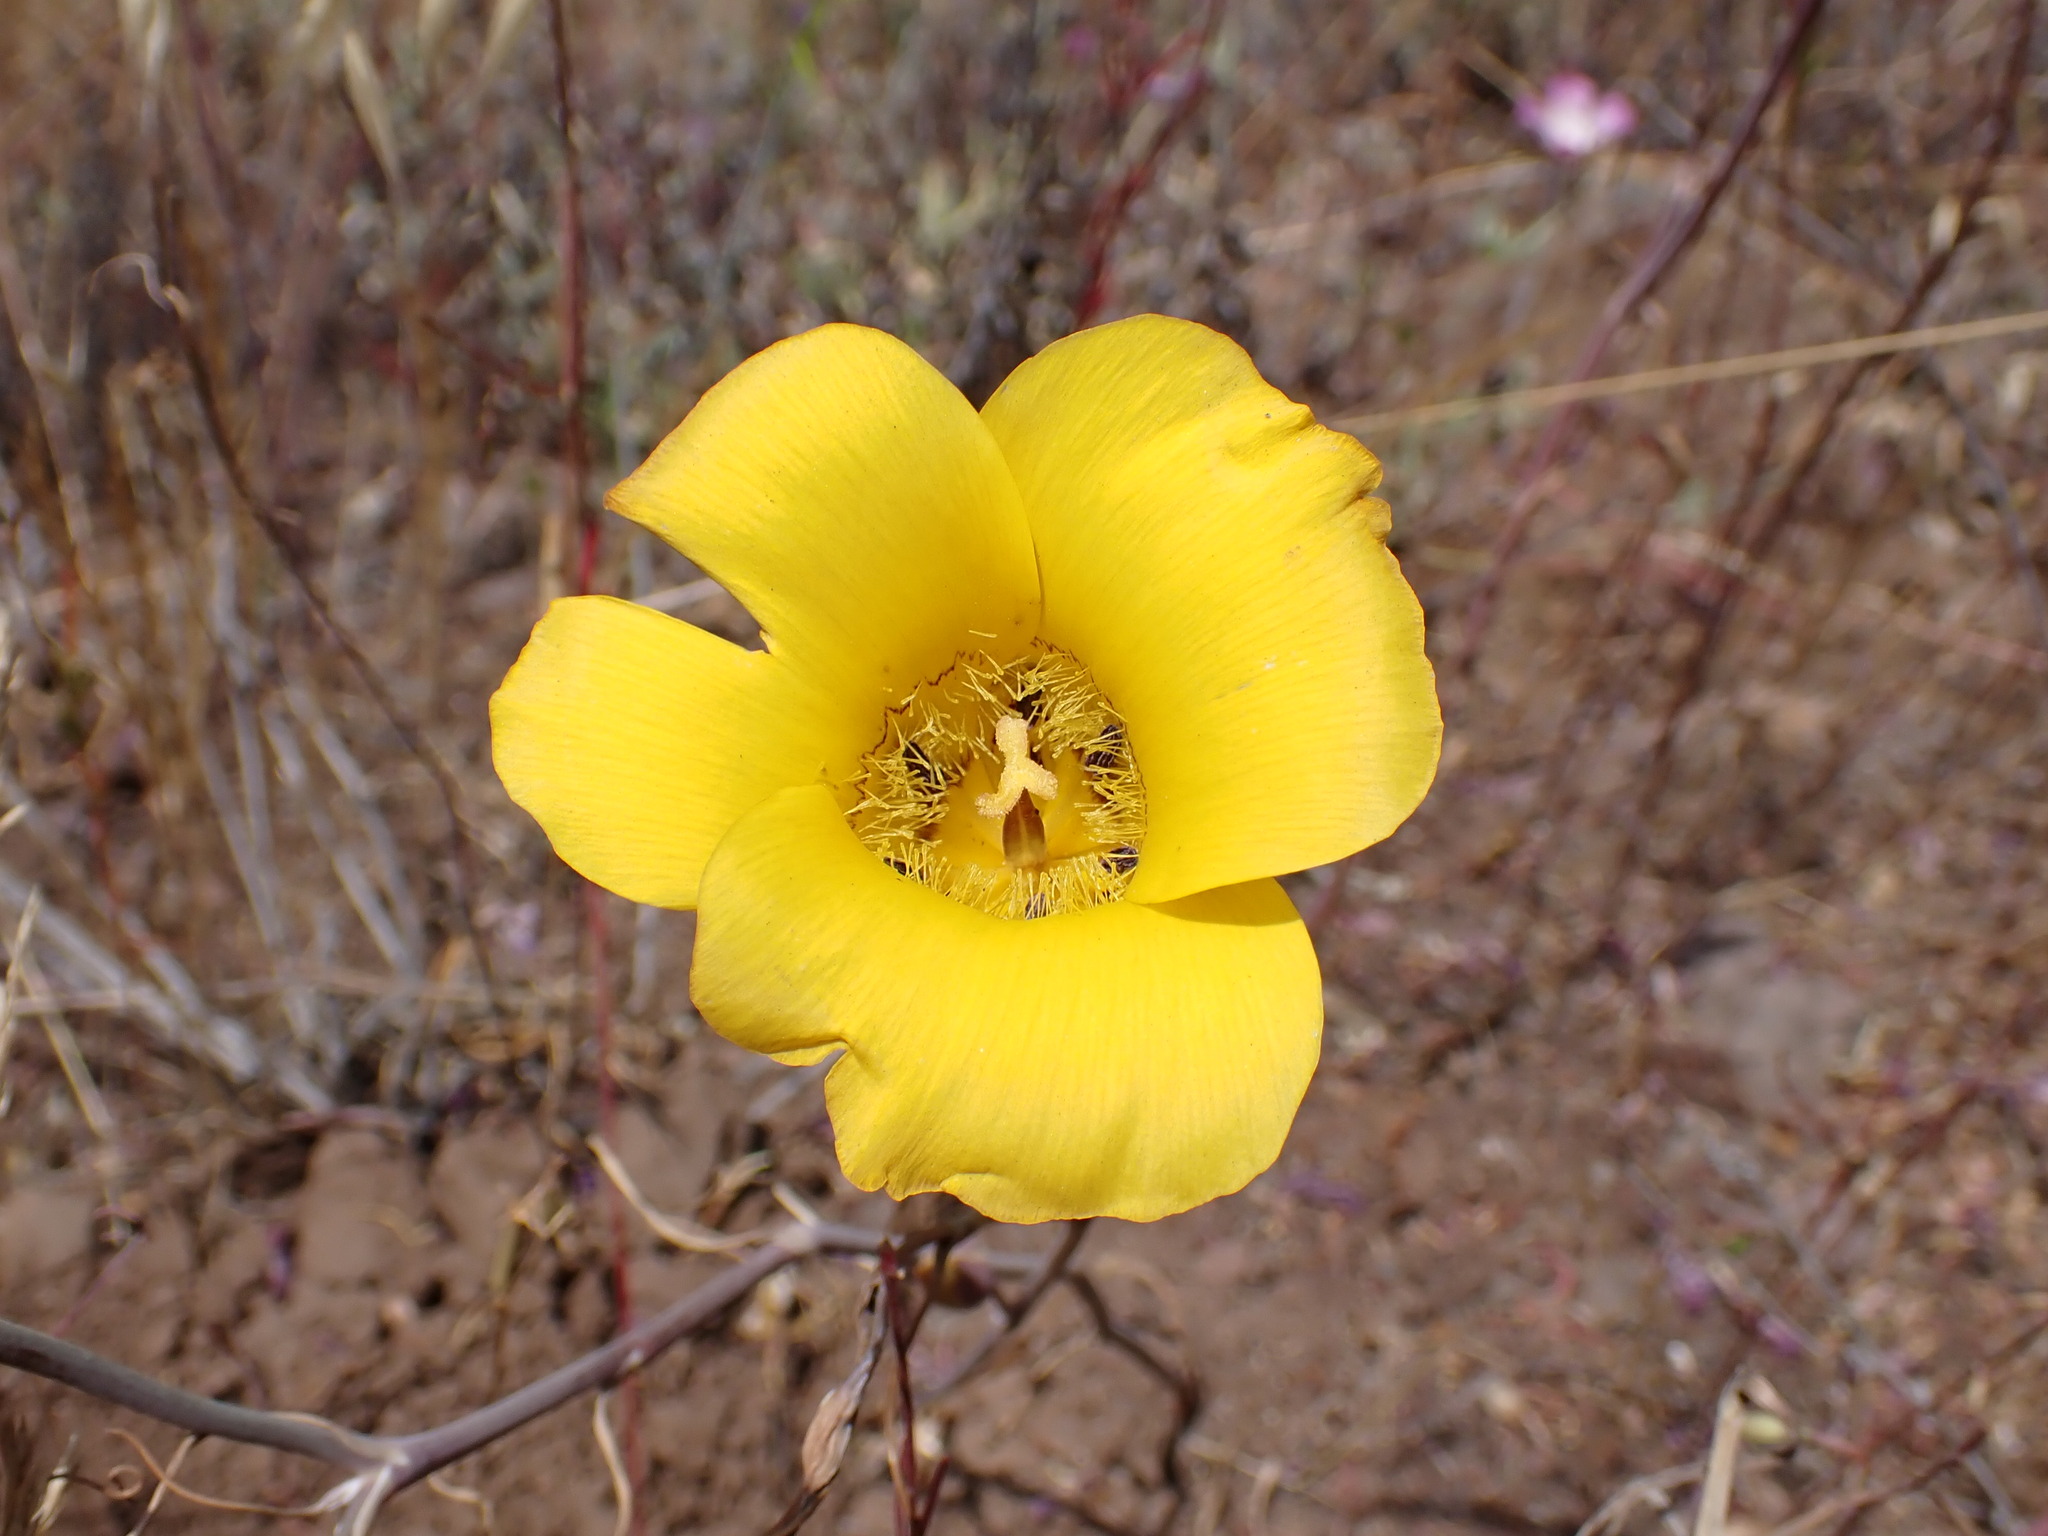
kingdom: Plantae
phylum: Tracheophyta
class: Liliopsida
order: Liliales
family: Liliaceae
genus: Calochortus
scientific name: Calochortus clavatus
